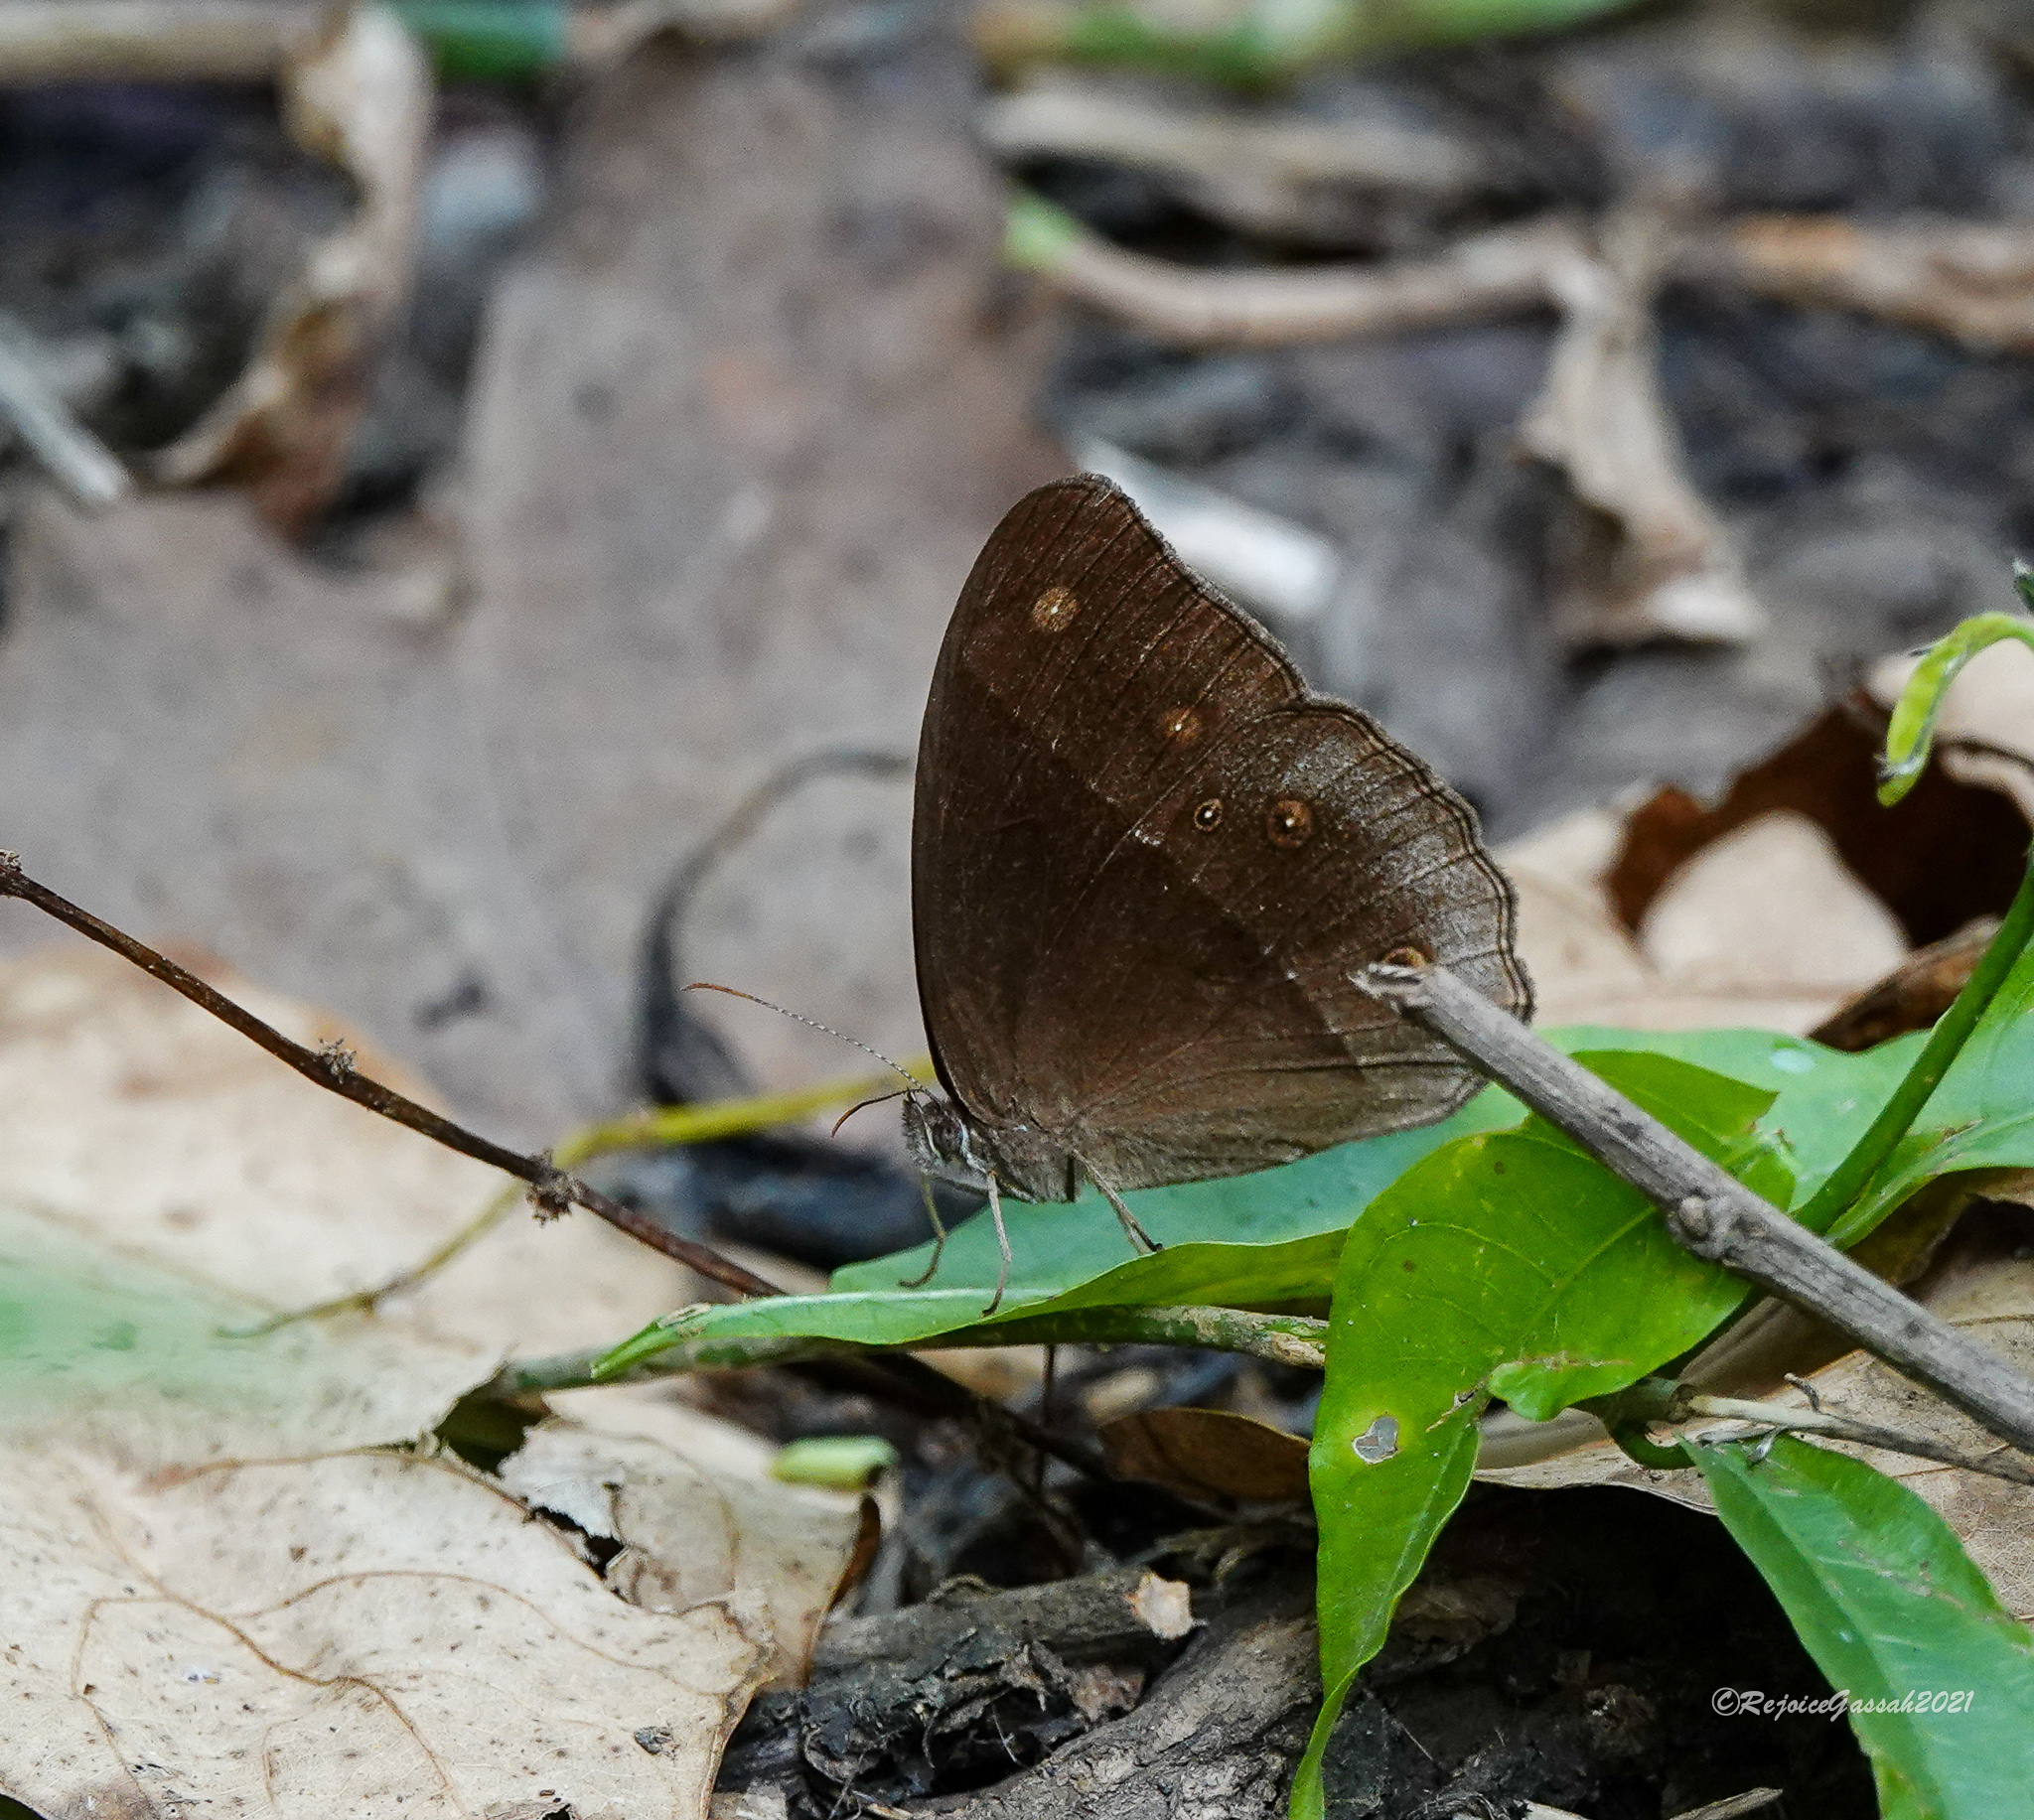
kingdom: Animalia
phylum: Arthropoda
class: Insecta
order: Lepidoptera
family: Nymphalidae
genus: Orsotriaena
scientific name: Orsotriaena medus
